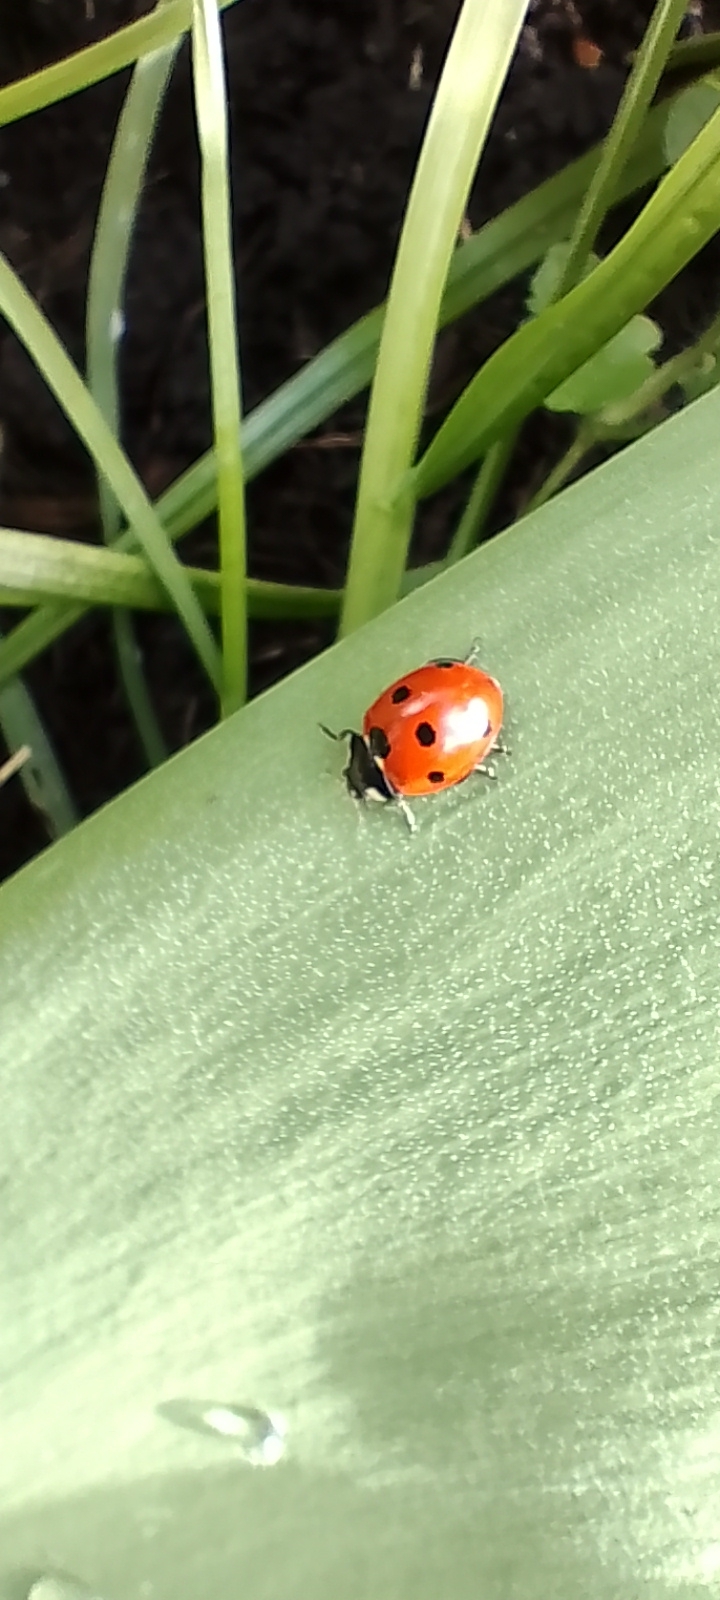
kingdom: Animalia
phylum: Arthropoda
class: Insecta
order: Coleoptera
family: Coccinellidae
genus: Coccinella
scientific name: Coccinella septempunctata
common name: Sevenspotted lady beetle
